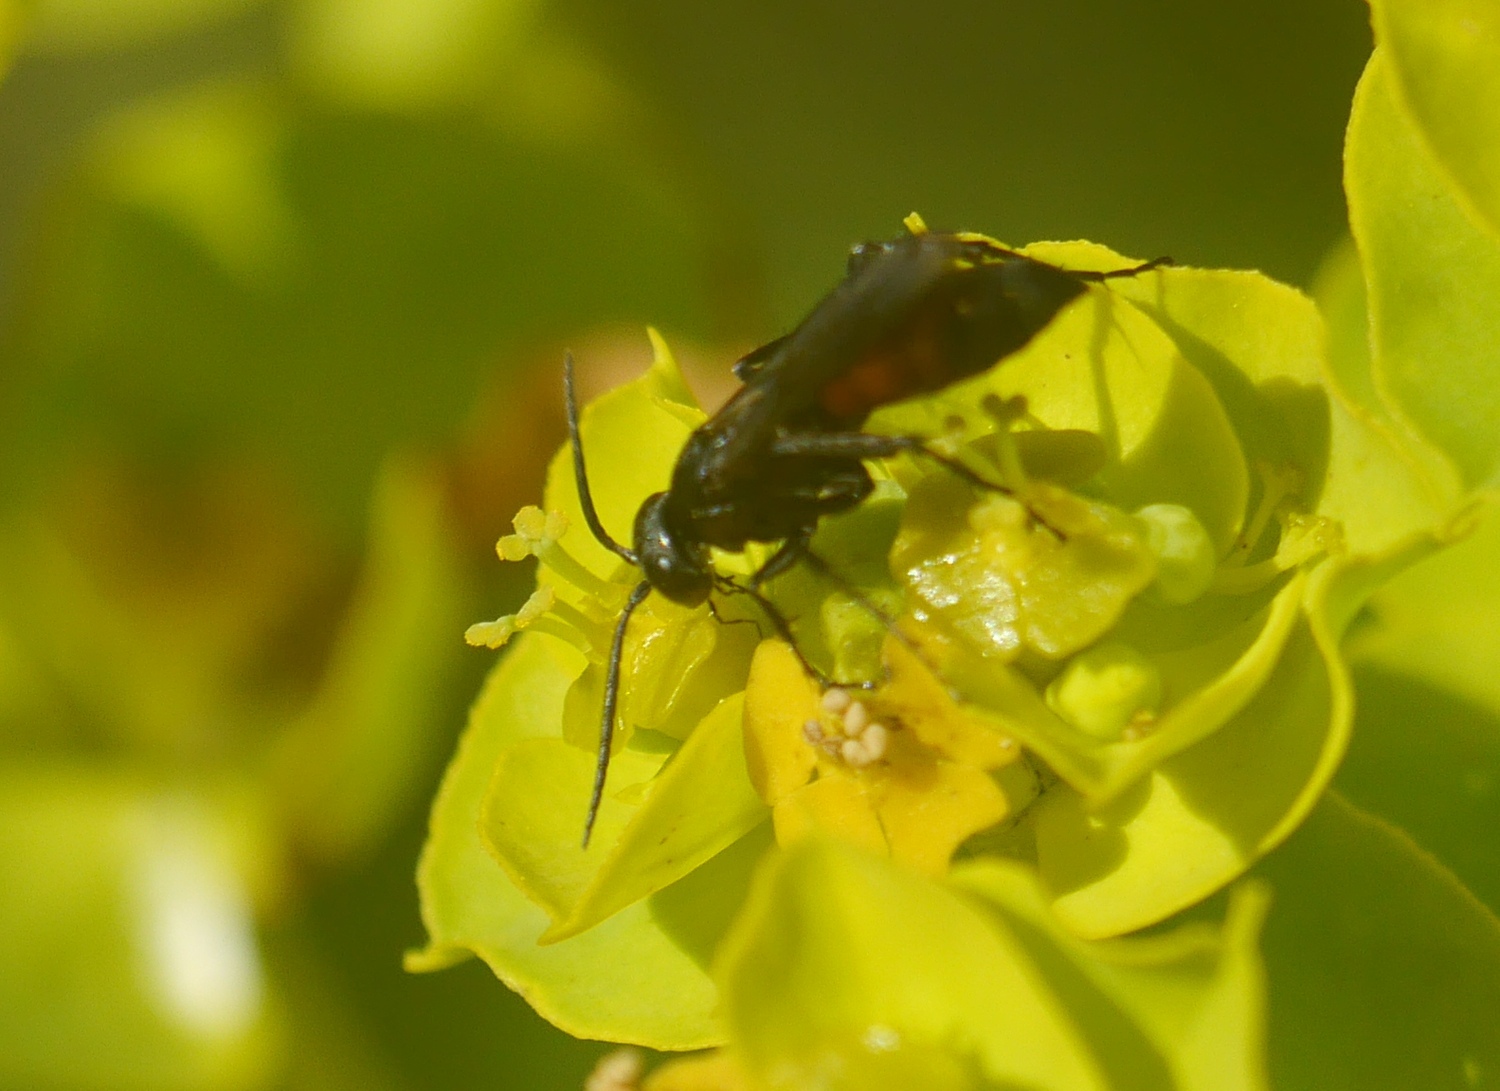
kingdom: Animalia
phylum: Arthropoda
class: Insecta
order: Hymenoptera
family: Pompilidae
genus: Anoplius
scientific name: Anoplius viaticus
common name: Black banded spider wasp
